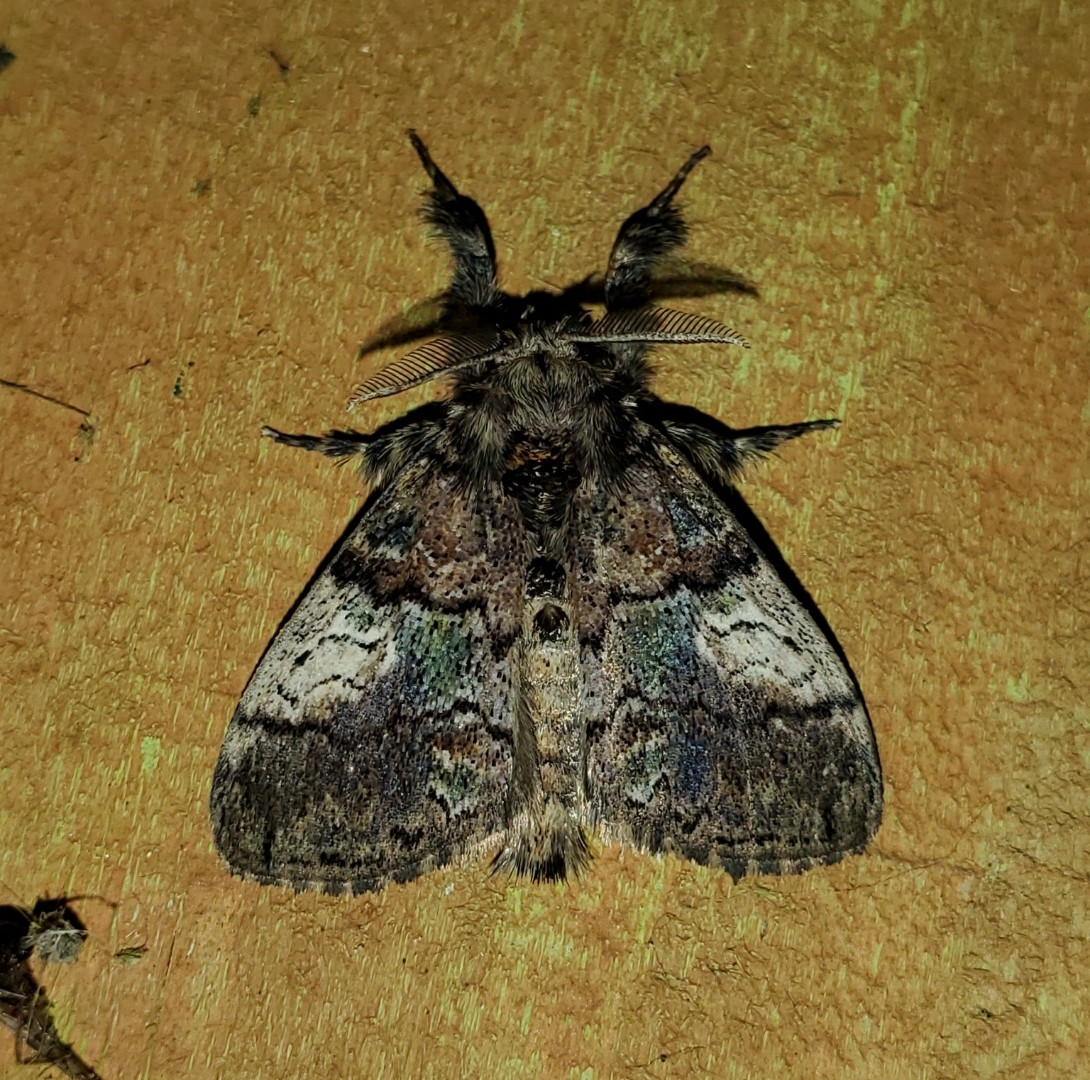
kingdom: Animalia
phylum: Arthropoda
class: Insecta
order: Lepidoptera
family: Erebidae
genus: Dasychira
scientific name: Dasychira meridionalis
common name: Southern tussock moth
